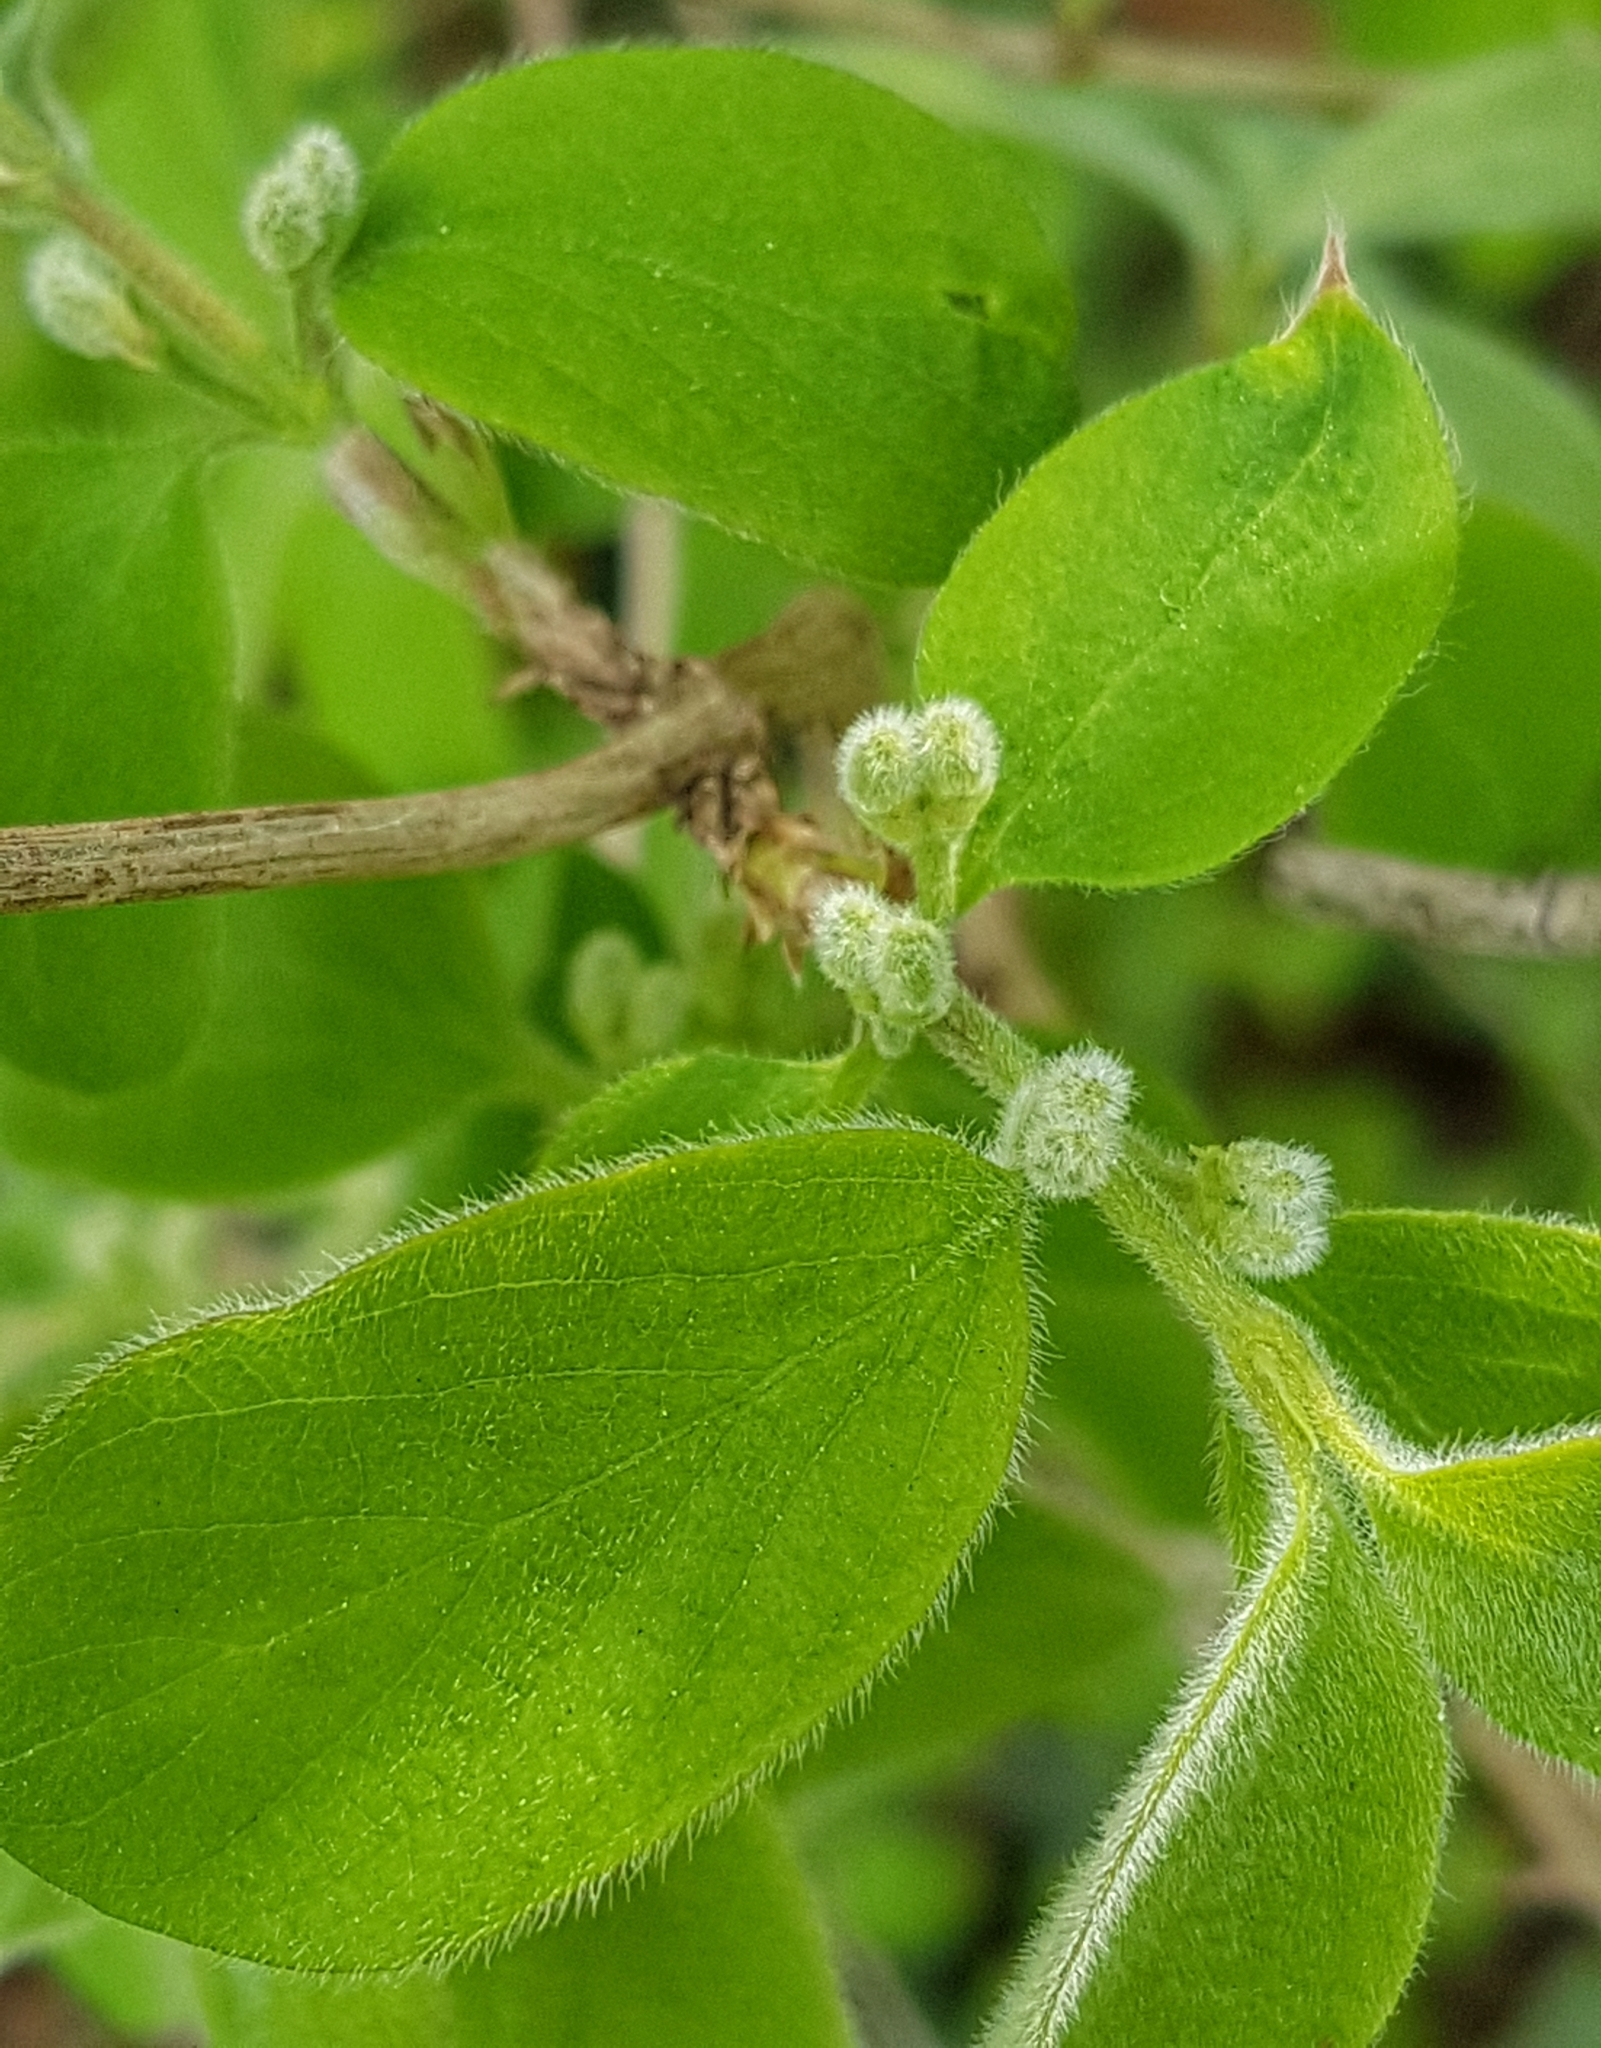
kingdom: Plantae
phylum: Tracheophyta
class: Magnoliopsida
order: Dipsacales
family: Caprifoliaceae
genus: Lonicera
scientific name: Lonicera xylosteum
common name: Fly honeysuckle
